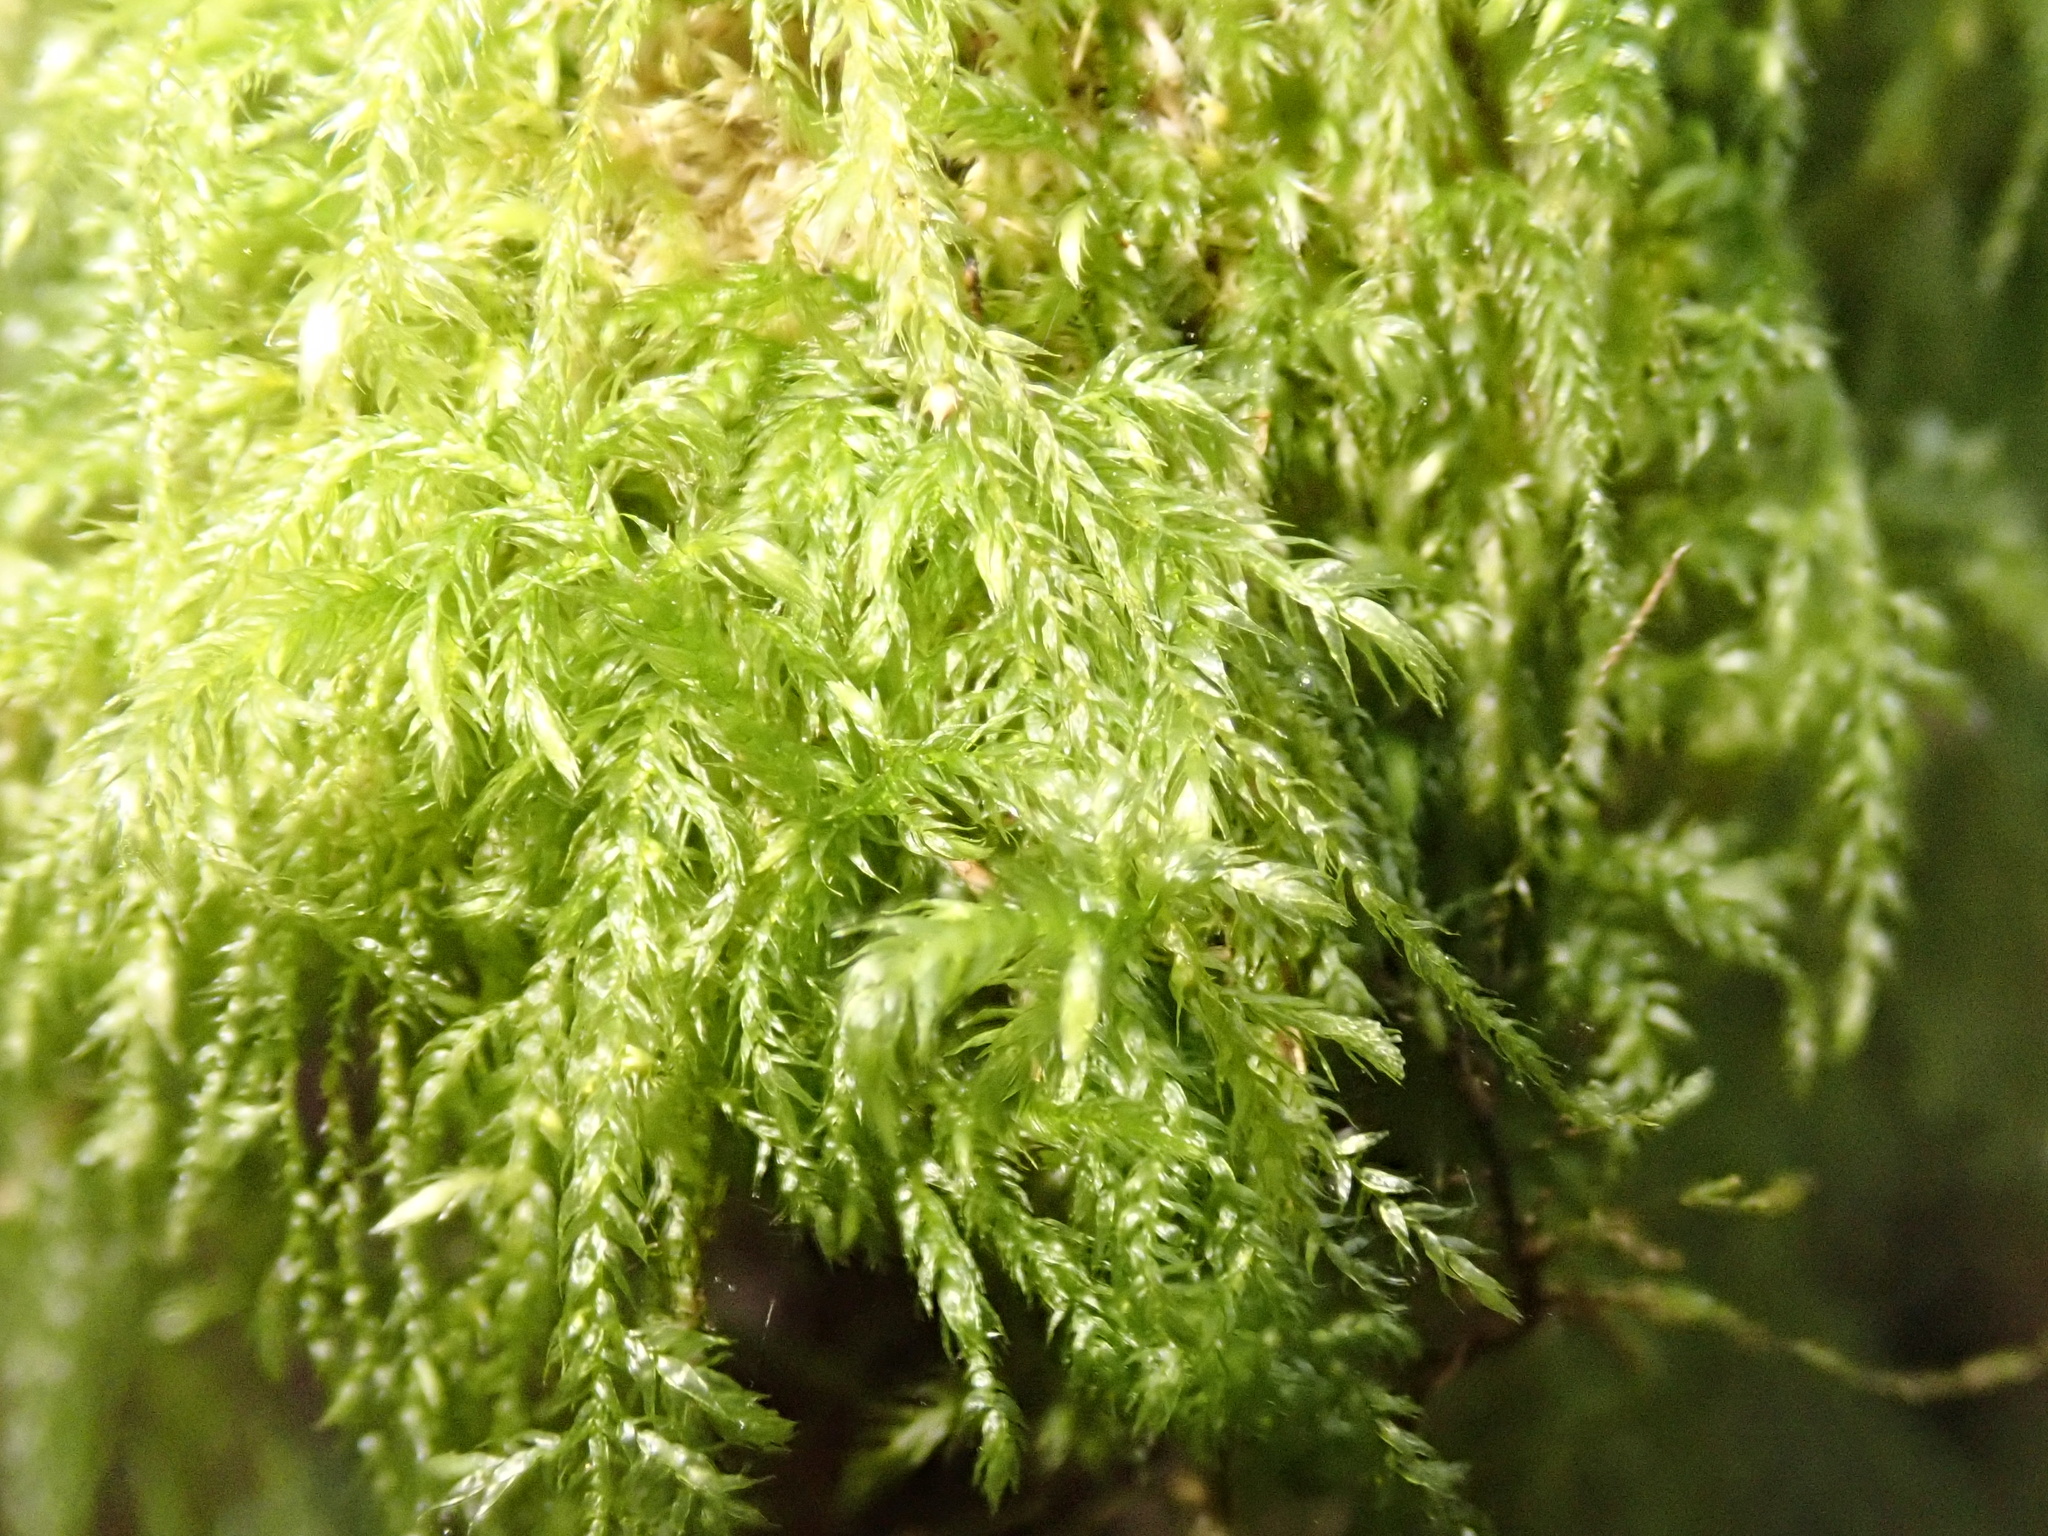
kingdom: Plantae
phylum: Bryophyta
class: Bryopsida
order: Hypnales
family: Lembophyllaceae
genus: Pseudisothecium
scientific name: Pseudisothecium stoloniferum
